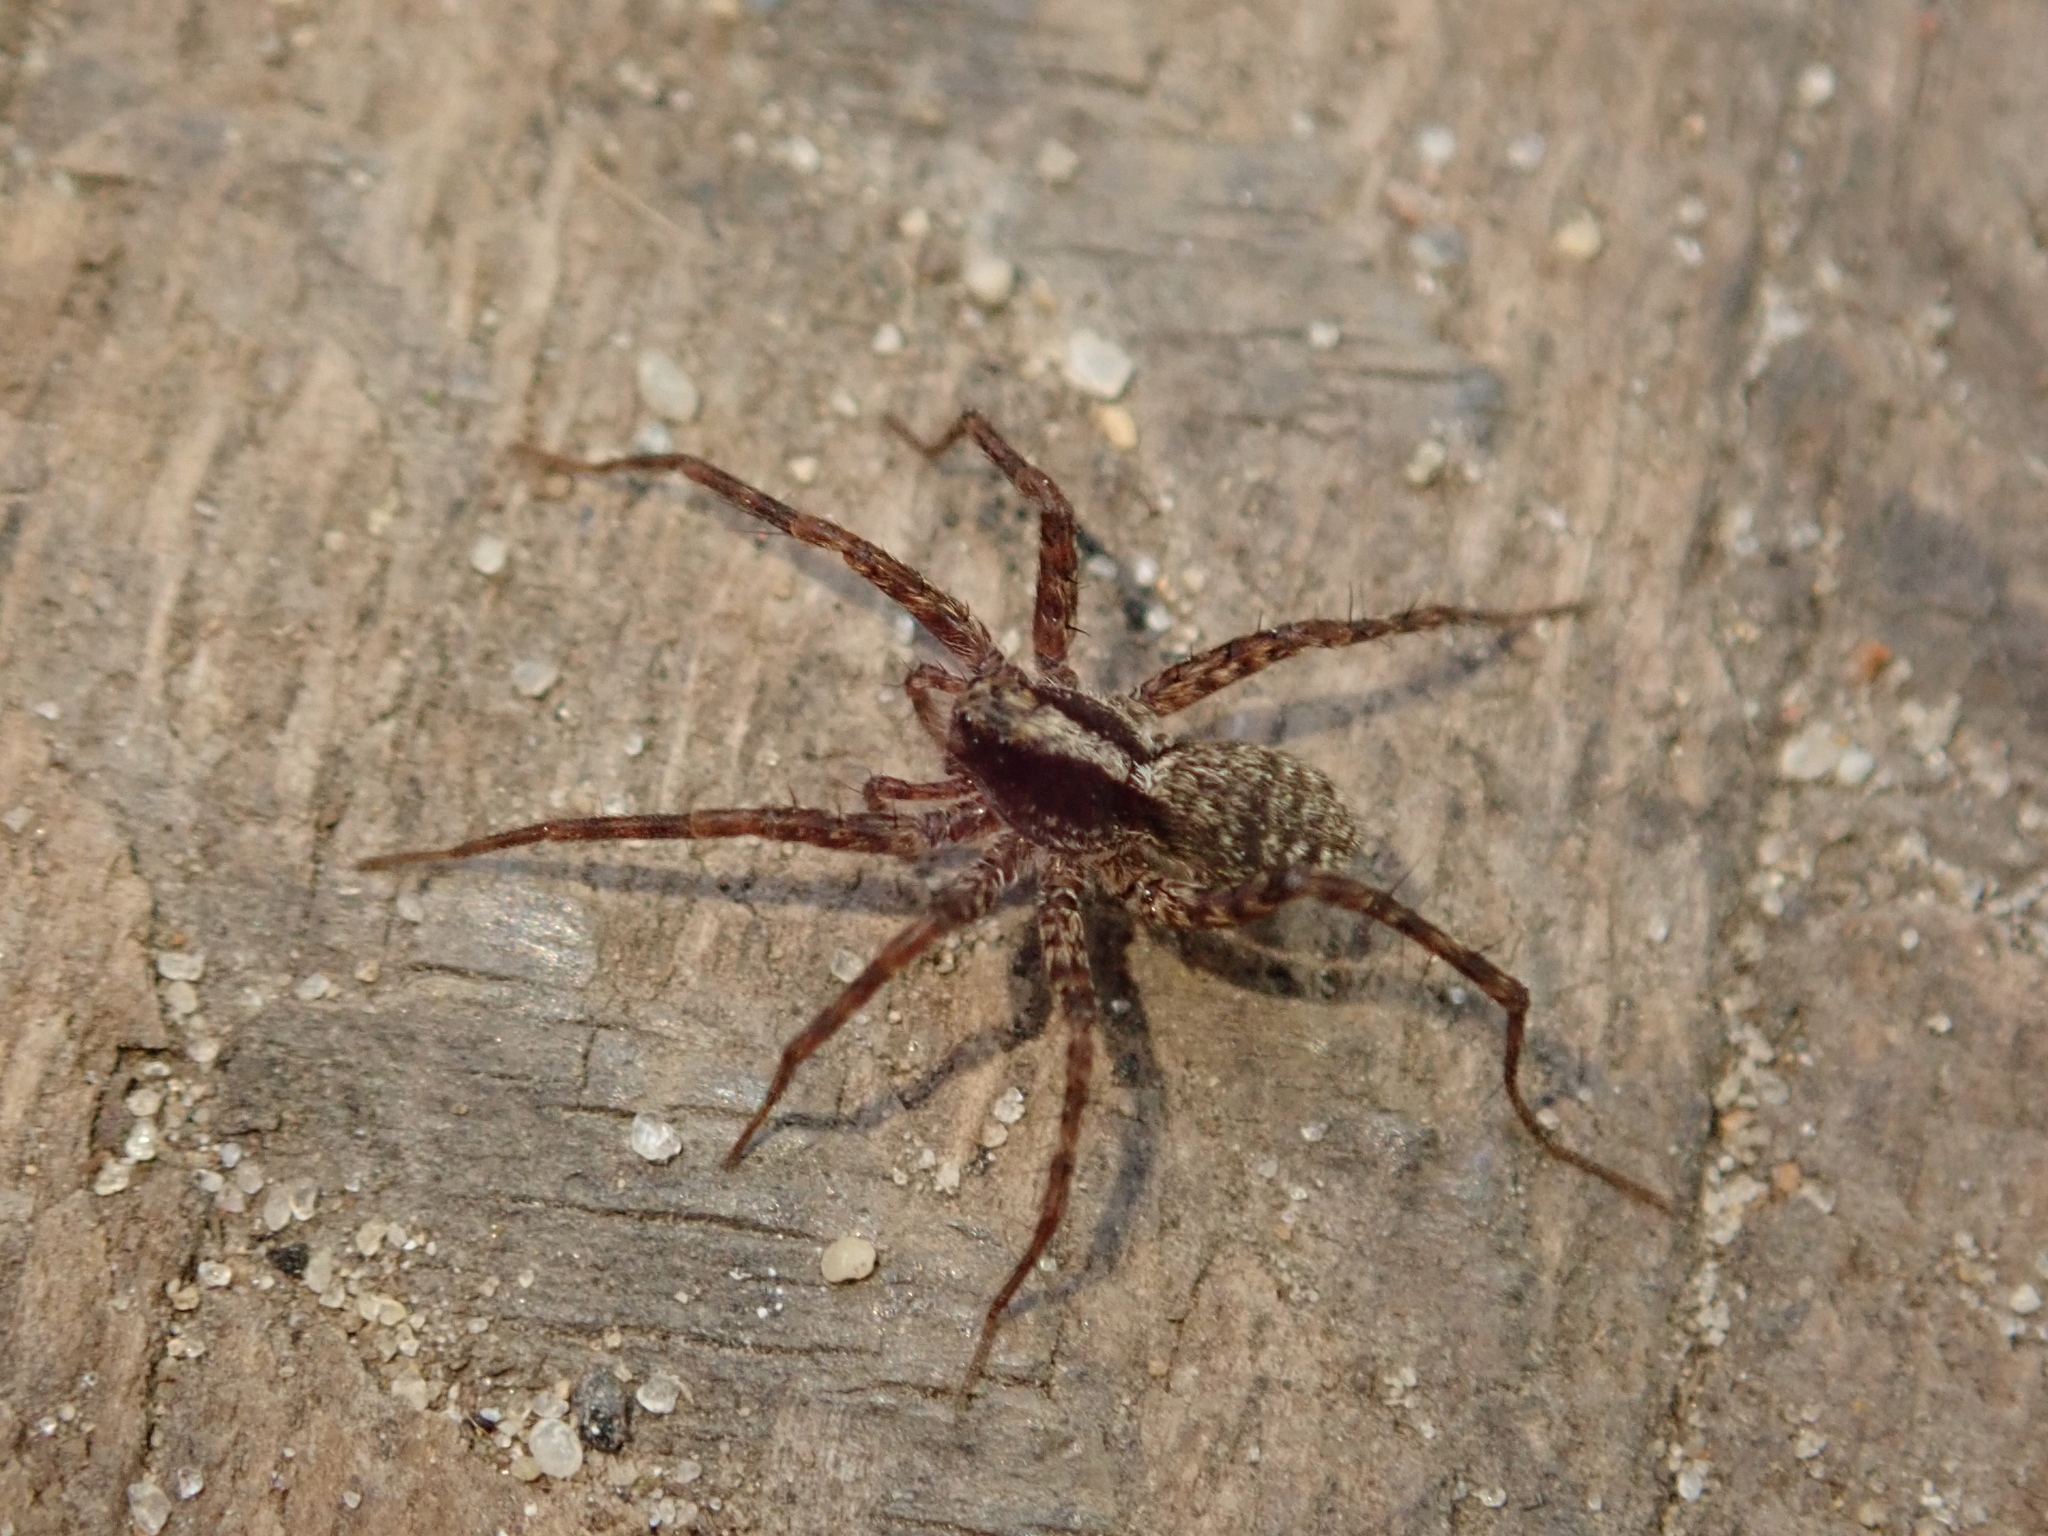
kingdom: Animalia
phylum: Arthropoda
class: Arachnida
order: Araneae
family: Lycosidae
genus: Pardosa
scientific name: Pardosa
